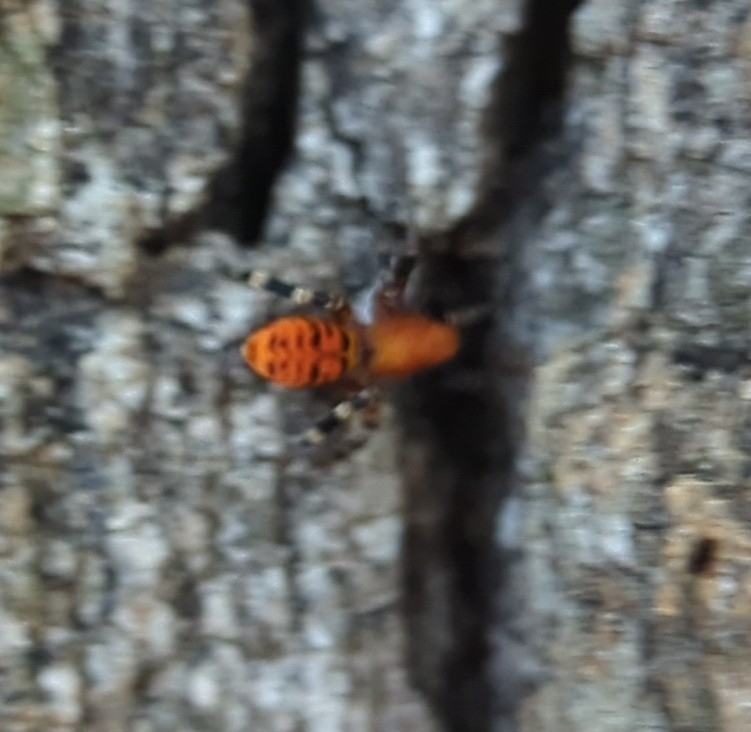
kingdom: Animalia
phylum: Arthropoda
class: Arachnida
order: Araneae
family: Corinnidae
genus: Castianeira
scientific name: Castianeira amoena
